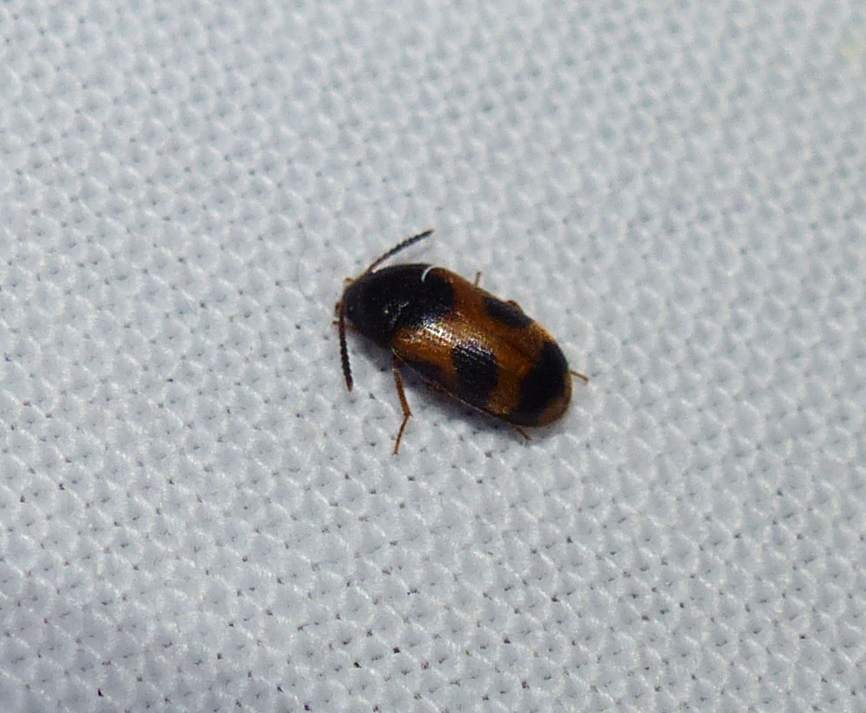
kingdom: Animalia
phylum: Arthropoda
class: Insecta
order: Coleoptera
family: Mycetophagidae
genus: Mycetophagus
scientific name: Mycetophagus punctatus
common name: Hairy fungus beetle
